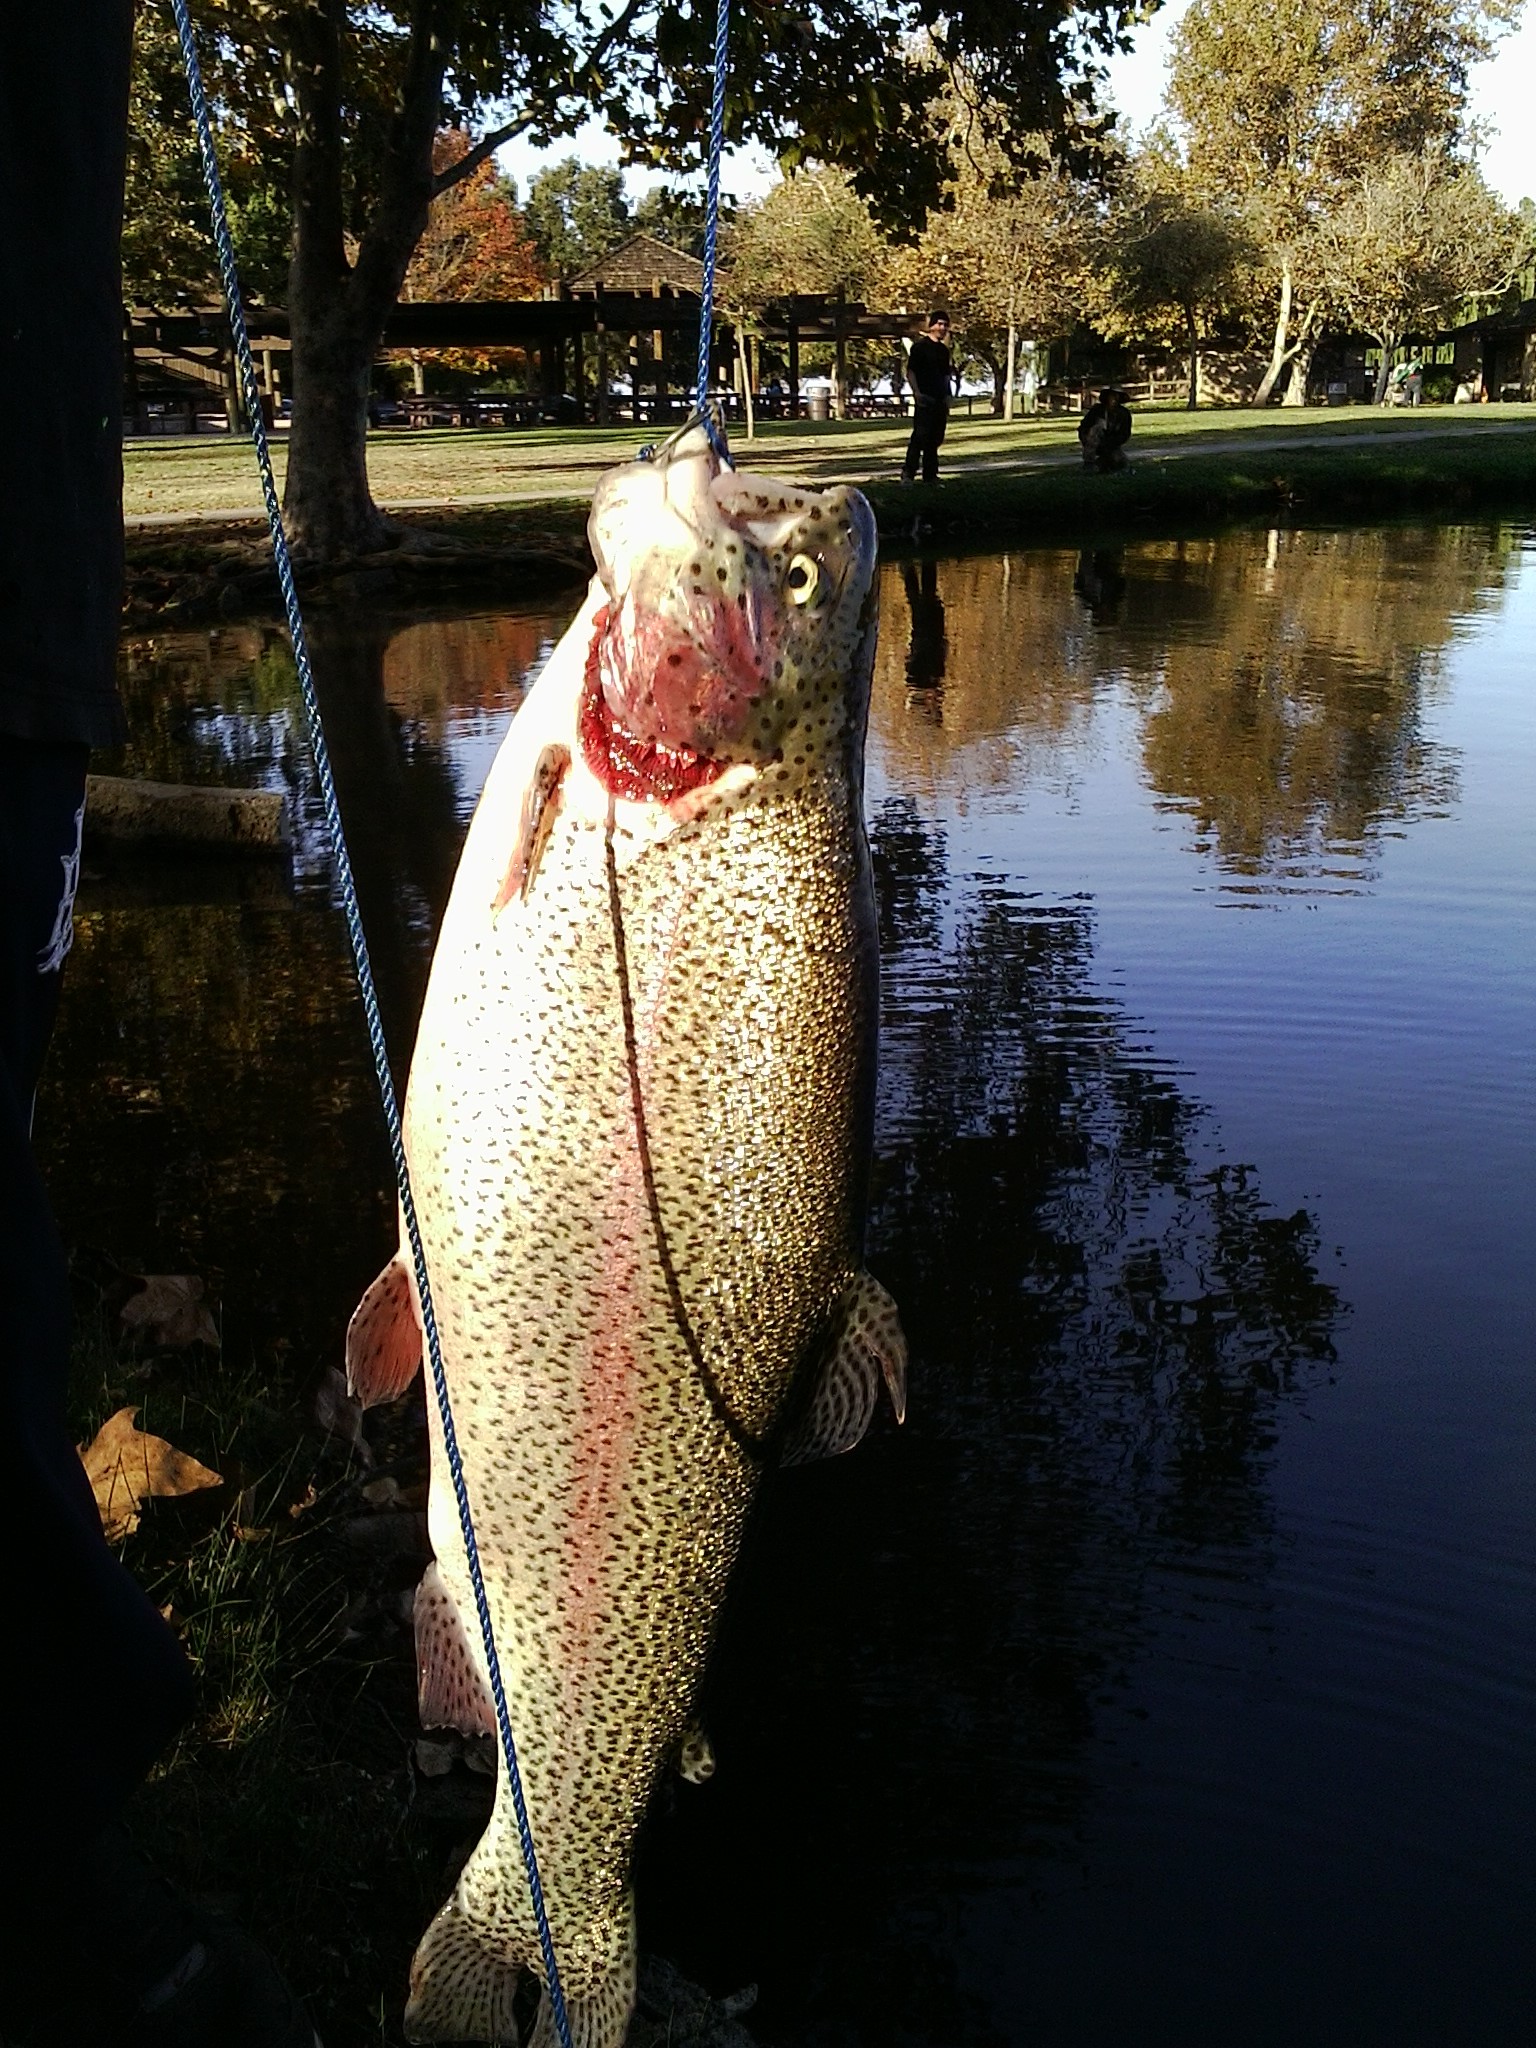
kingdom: Animalia
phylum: Chordata
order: Salmoniformes
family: Salmonidae
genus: Oncorhynchus
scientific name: Oncorhynchus mykiss
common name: Rainbow trout
